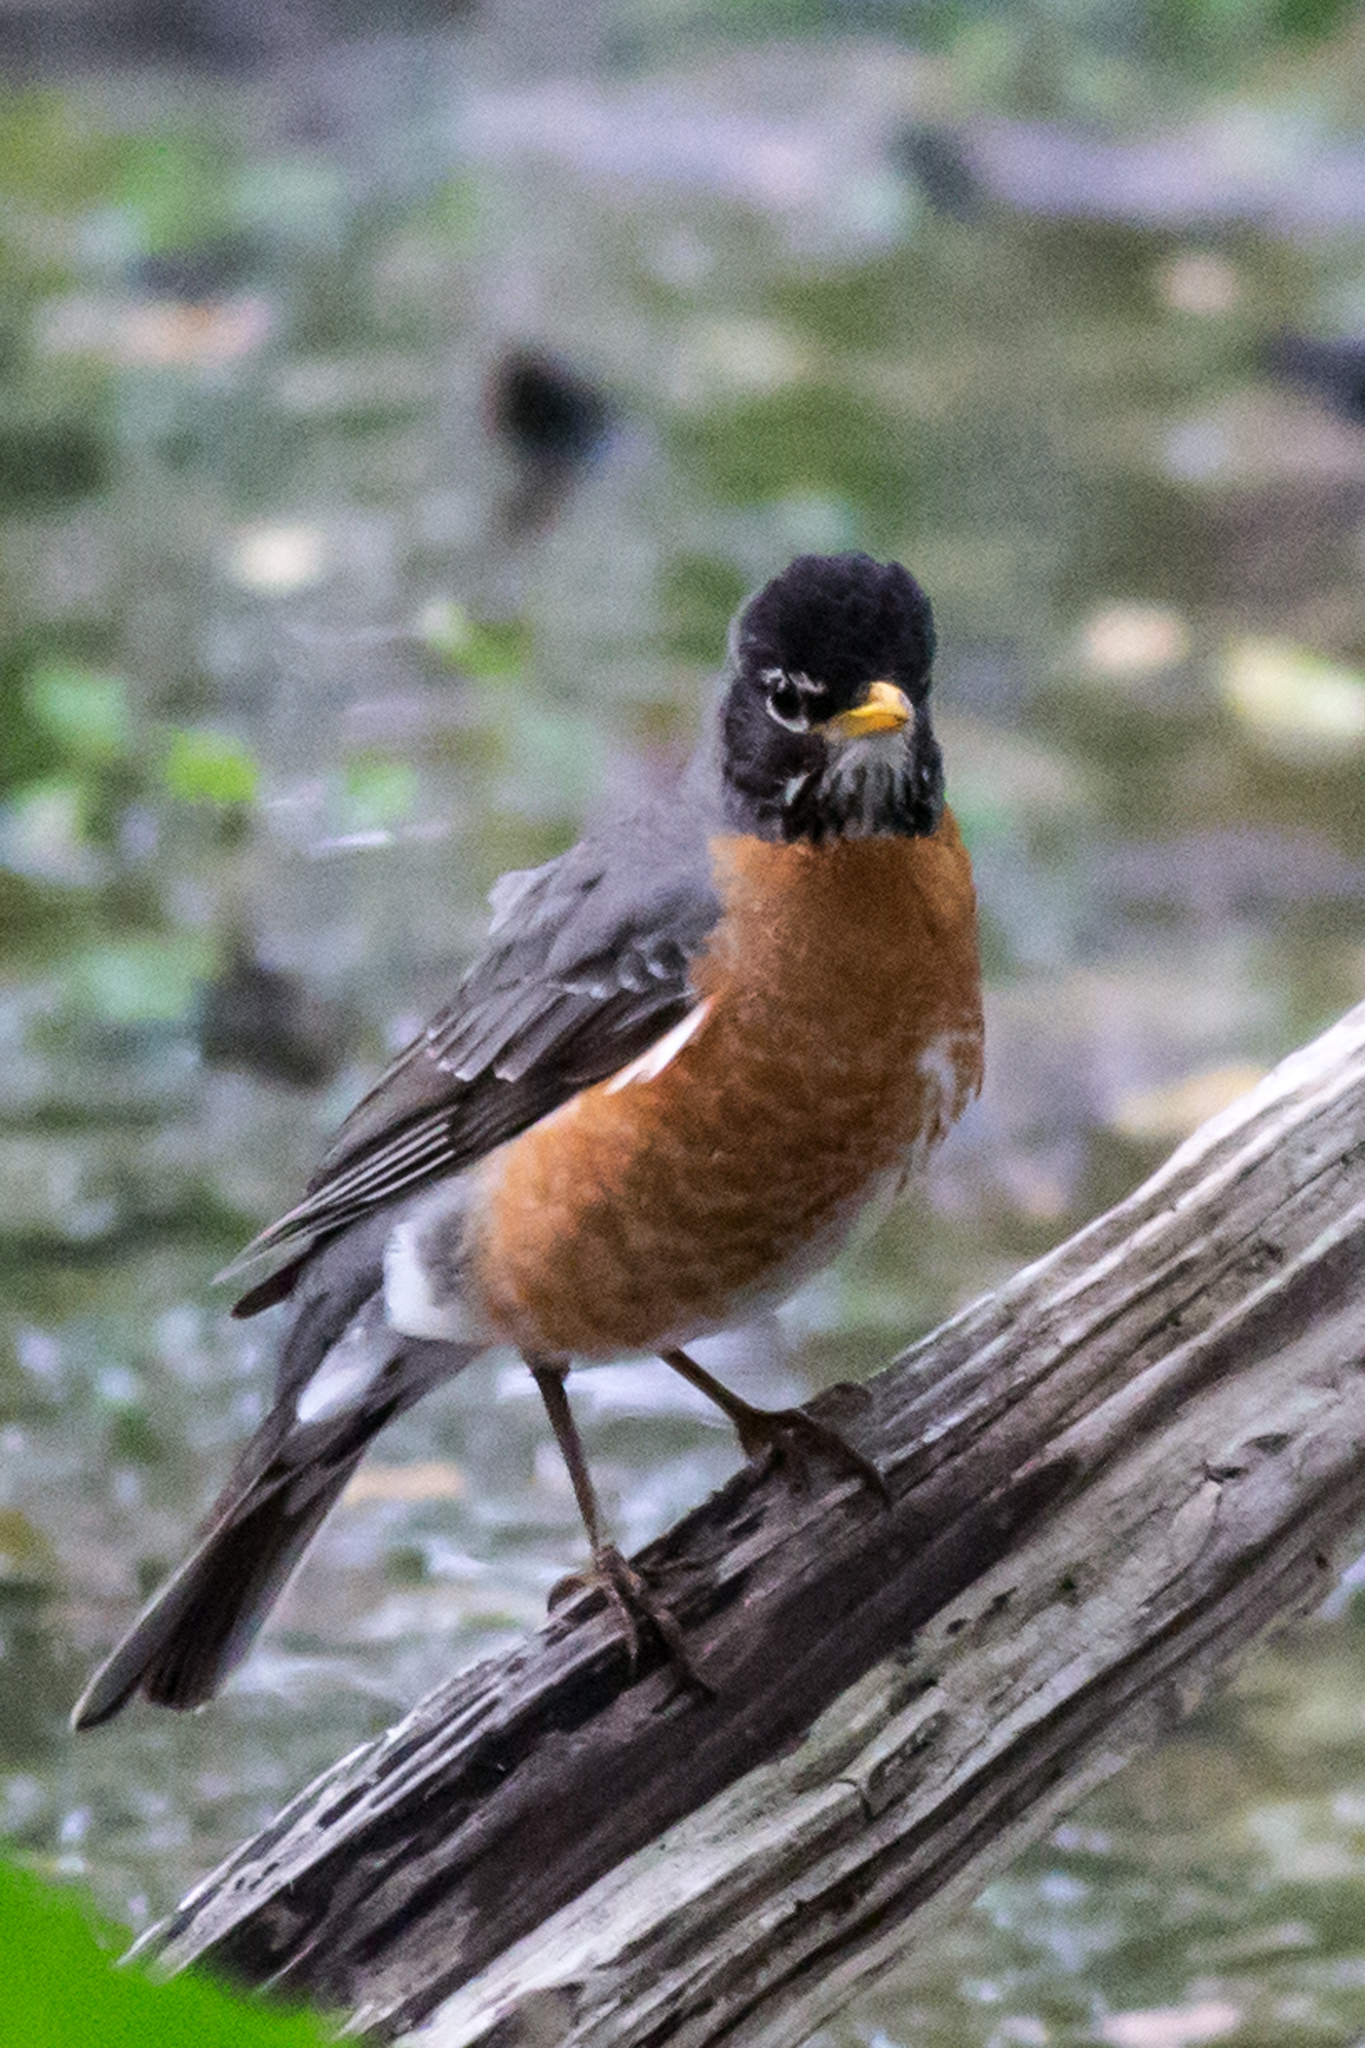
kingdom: Animalia
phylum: Chordata
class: Aves
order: Passeriformes
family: Turdidae
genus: Turdus
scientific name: Turdus migratorius
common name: American robin
